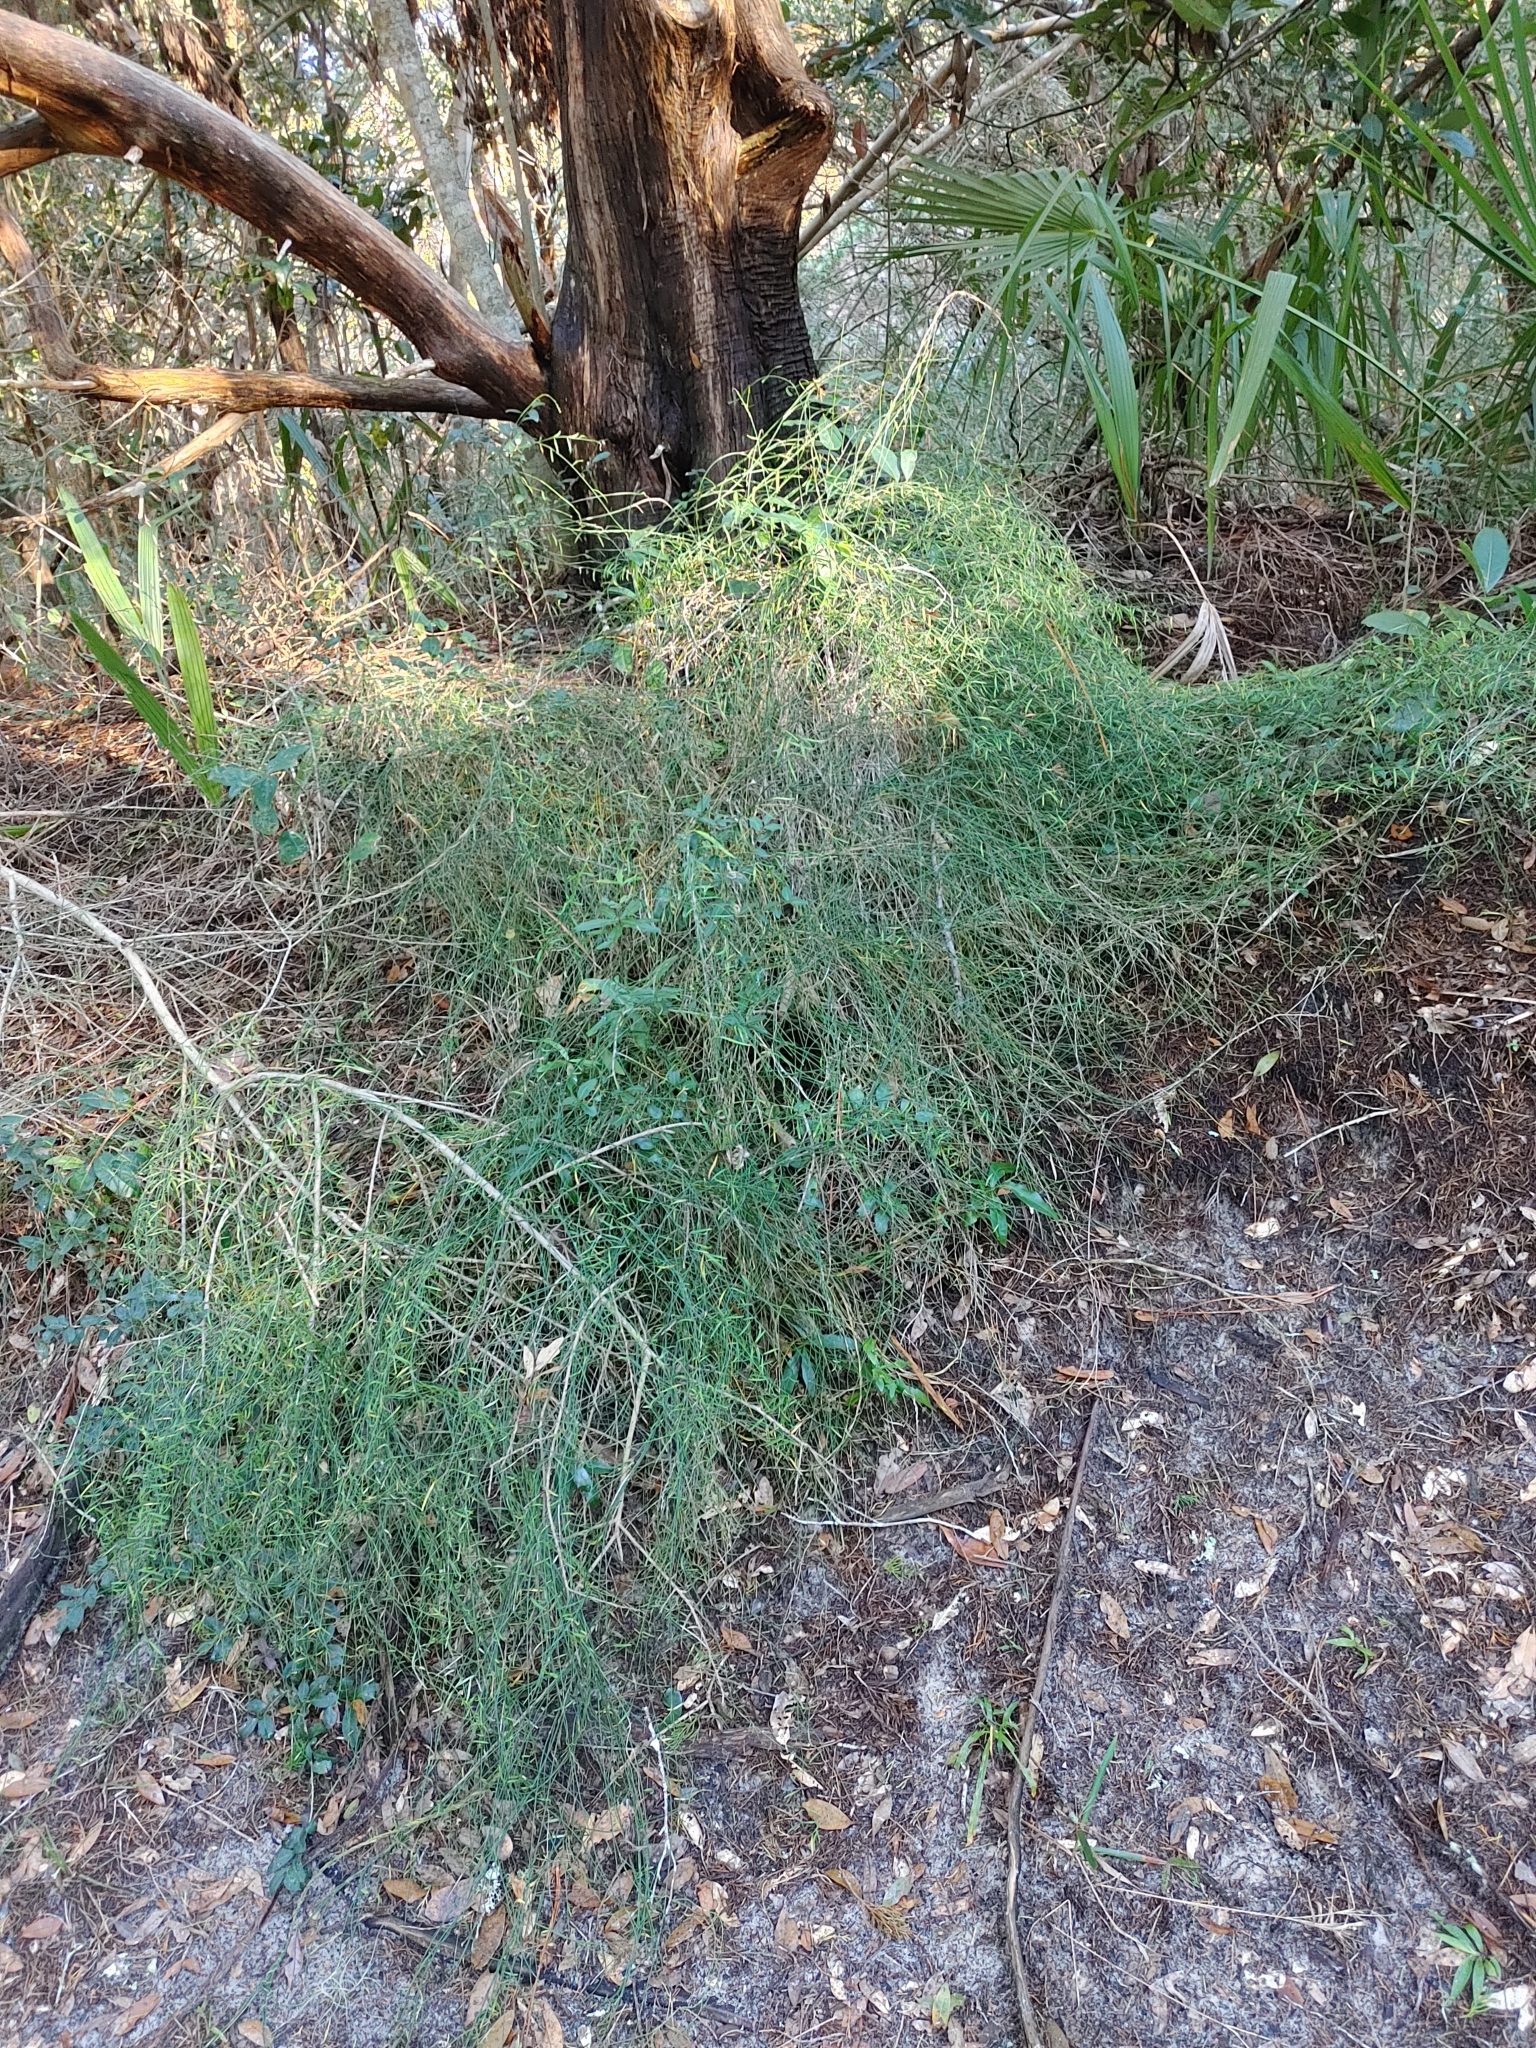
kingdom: Plantae
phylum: Tracheophyta
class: Magnoliopsida
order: Gentianales
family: Apocynaceae
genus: Orthosia
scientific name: Orthosia scoparia
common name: Leafless swallow-wort
